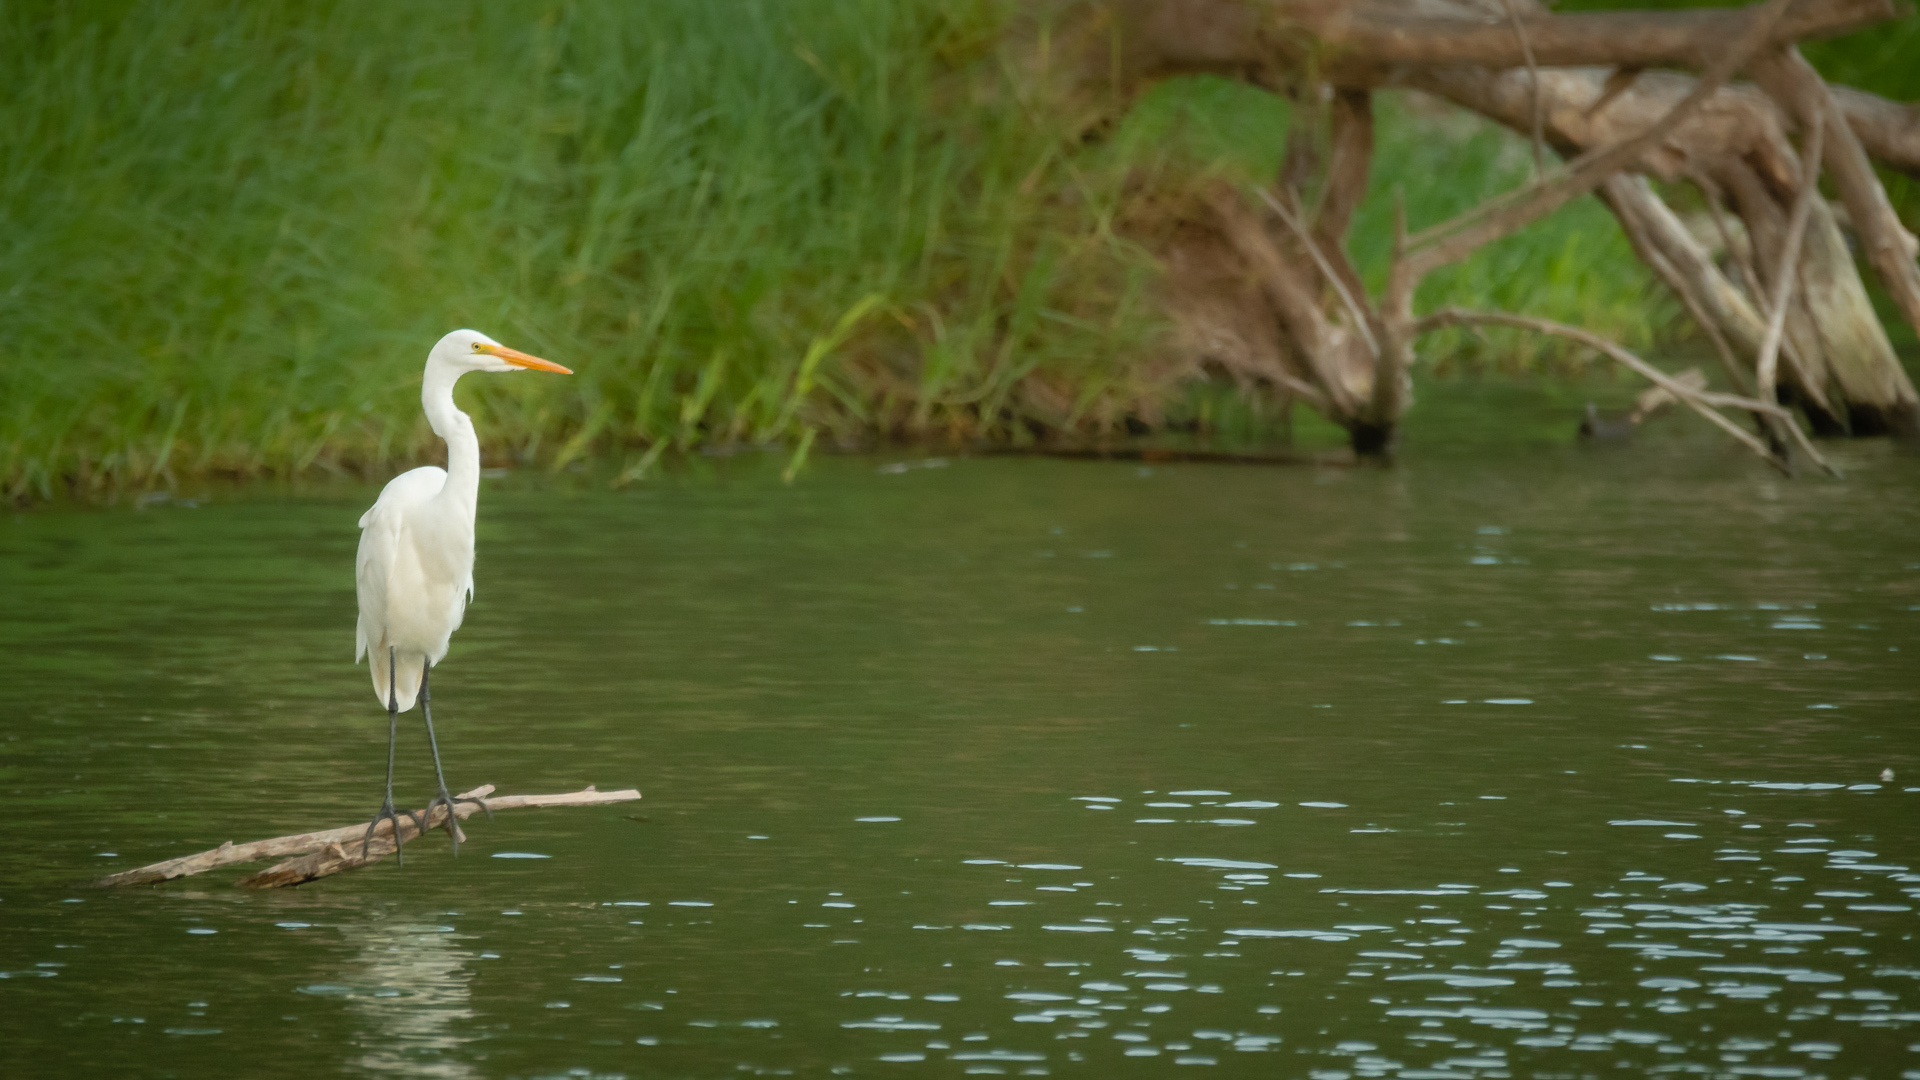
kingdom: Animalia
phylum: Chordata
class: Aves
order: Pelecaniformes
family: Ardeidae
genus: Ardea
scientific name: Ardea alba
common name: Great egret
